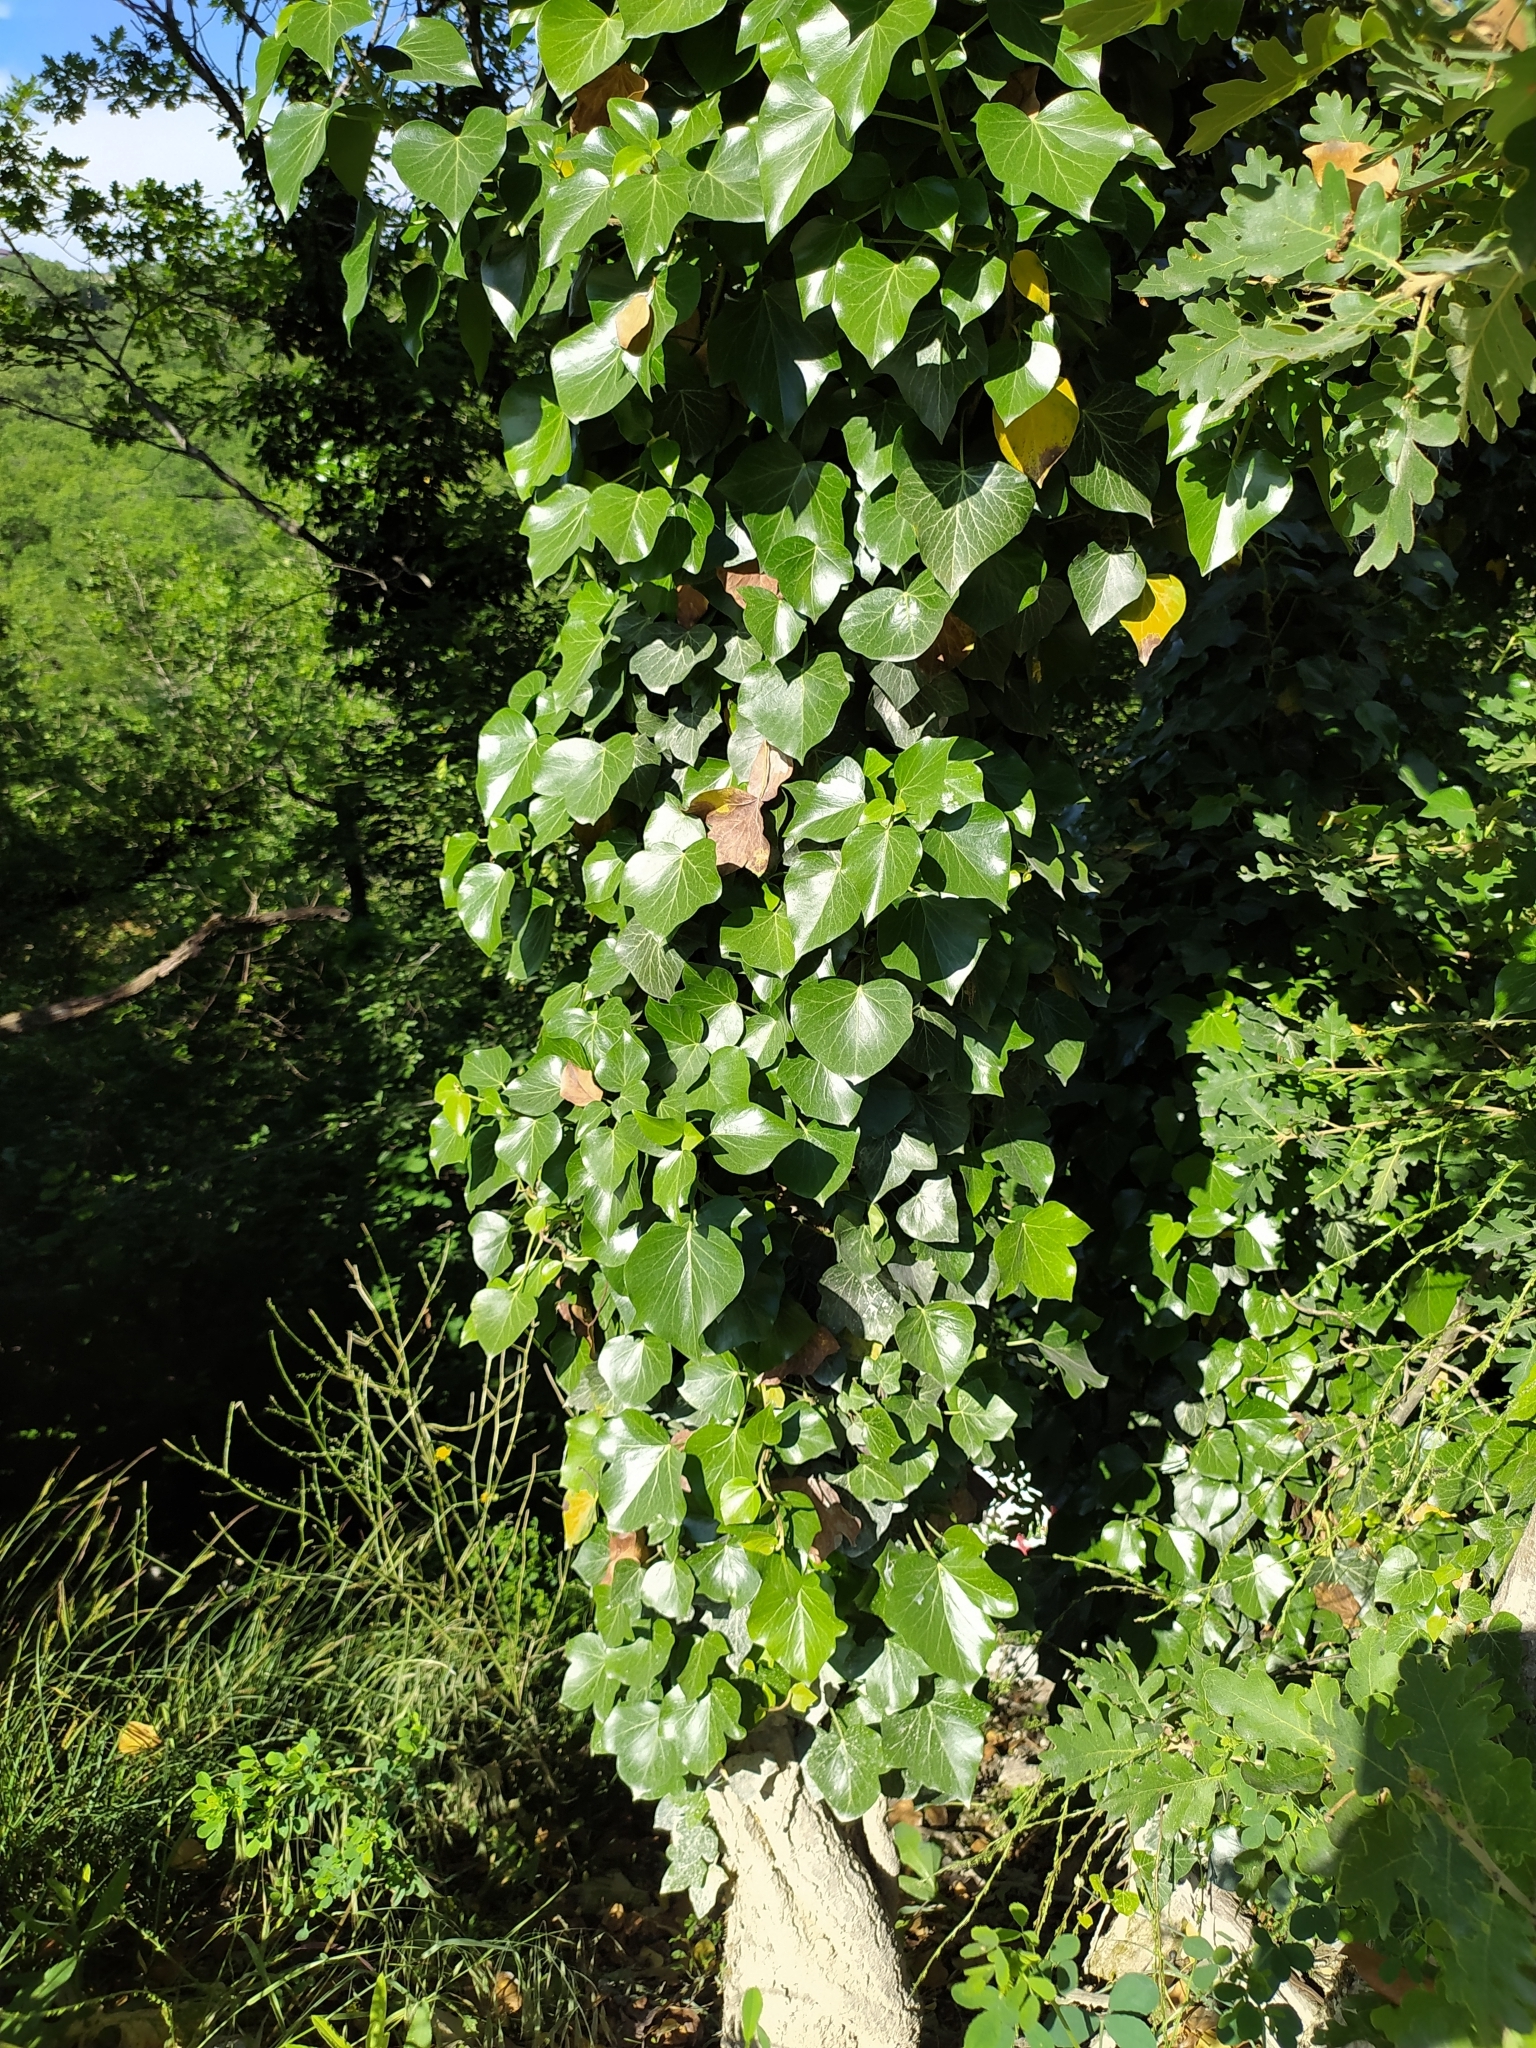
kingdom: Plantae
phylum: Tracheophyta
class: Magnoliopsida
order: Apiales
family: Araliaceae
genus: Hedera
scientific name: Hedera helix
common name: Ivy
